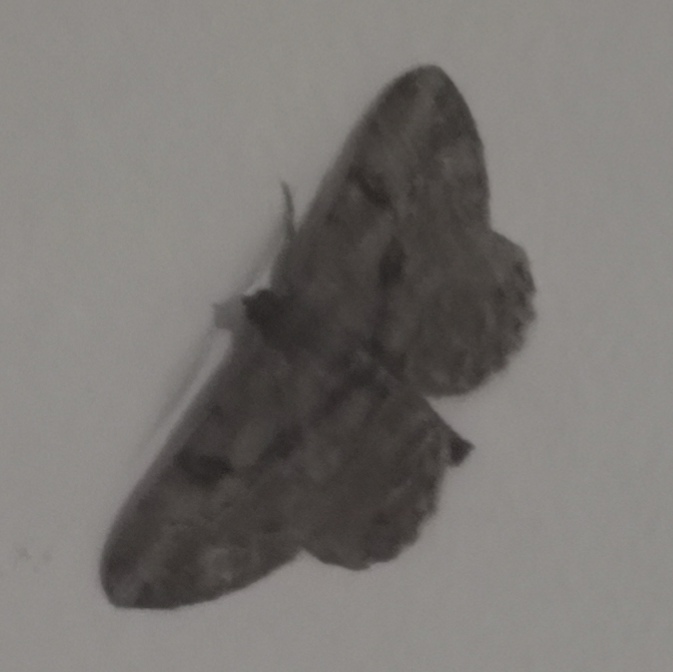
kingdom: Animalia
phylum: Arthropoda
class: Insecta
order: Lepidoptera
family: Geometridae
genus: Peribatodes
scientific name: Peribatodes rhomboidaria
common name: Willow beauty
